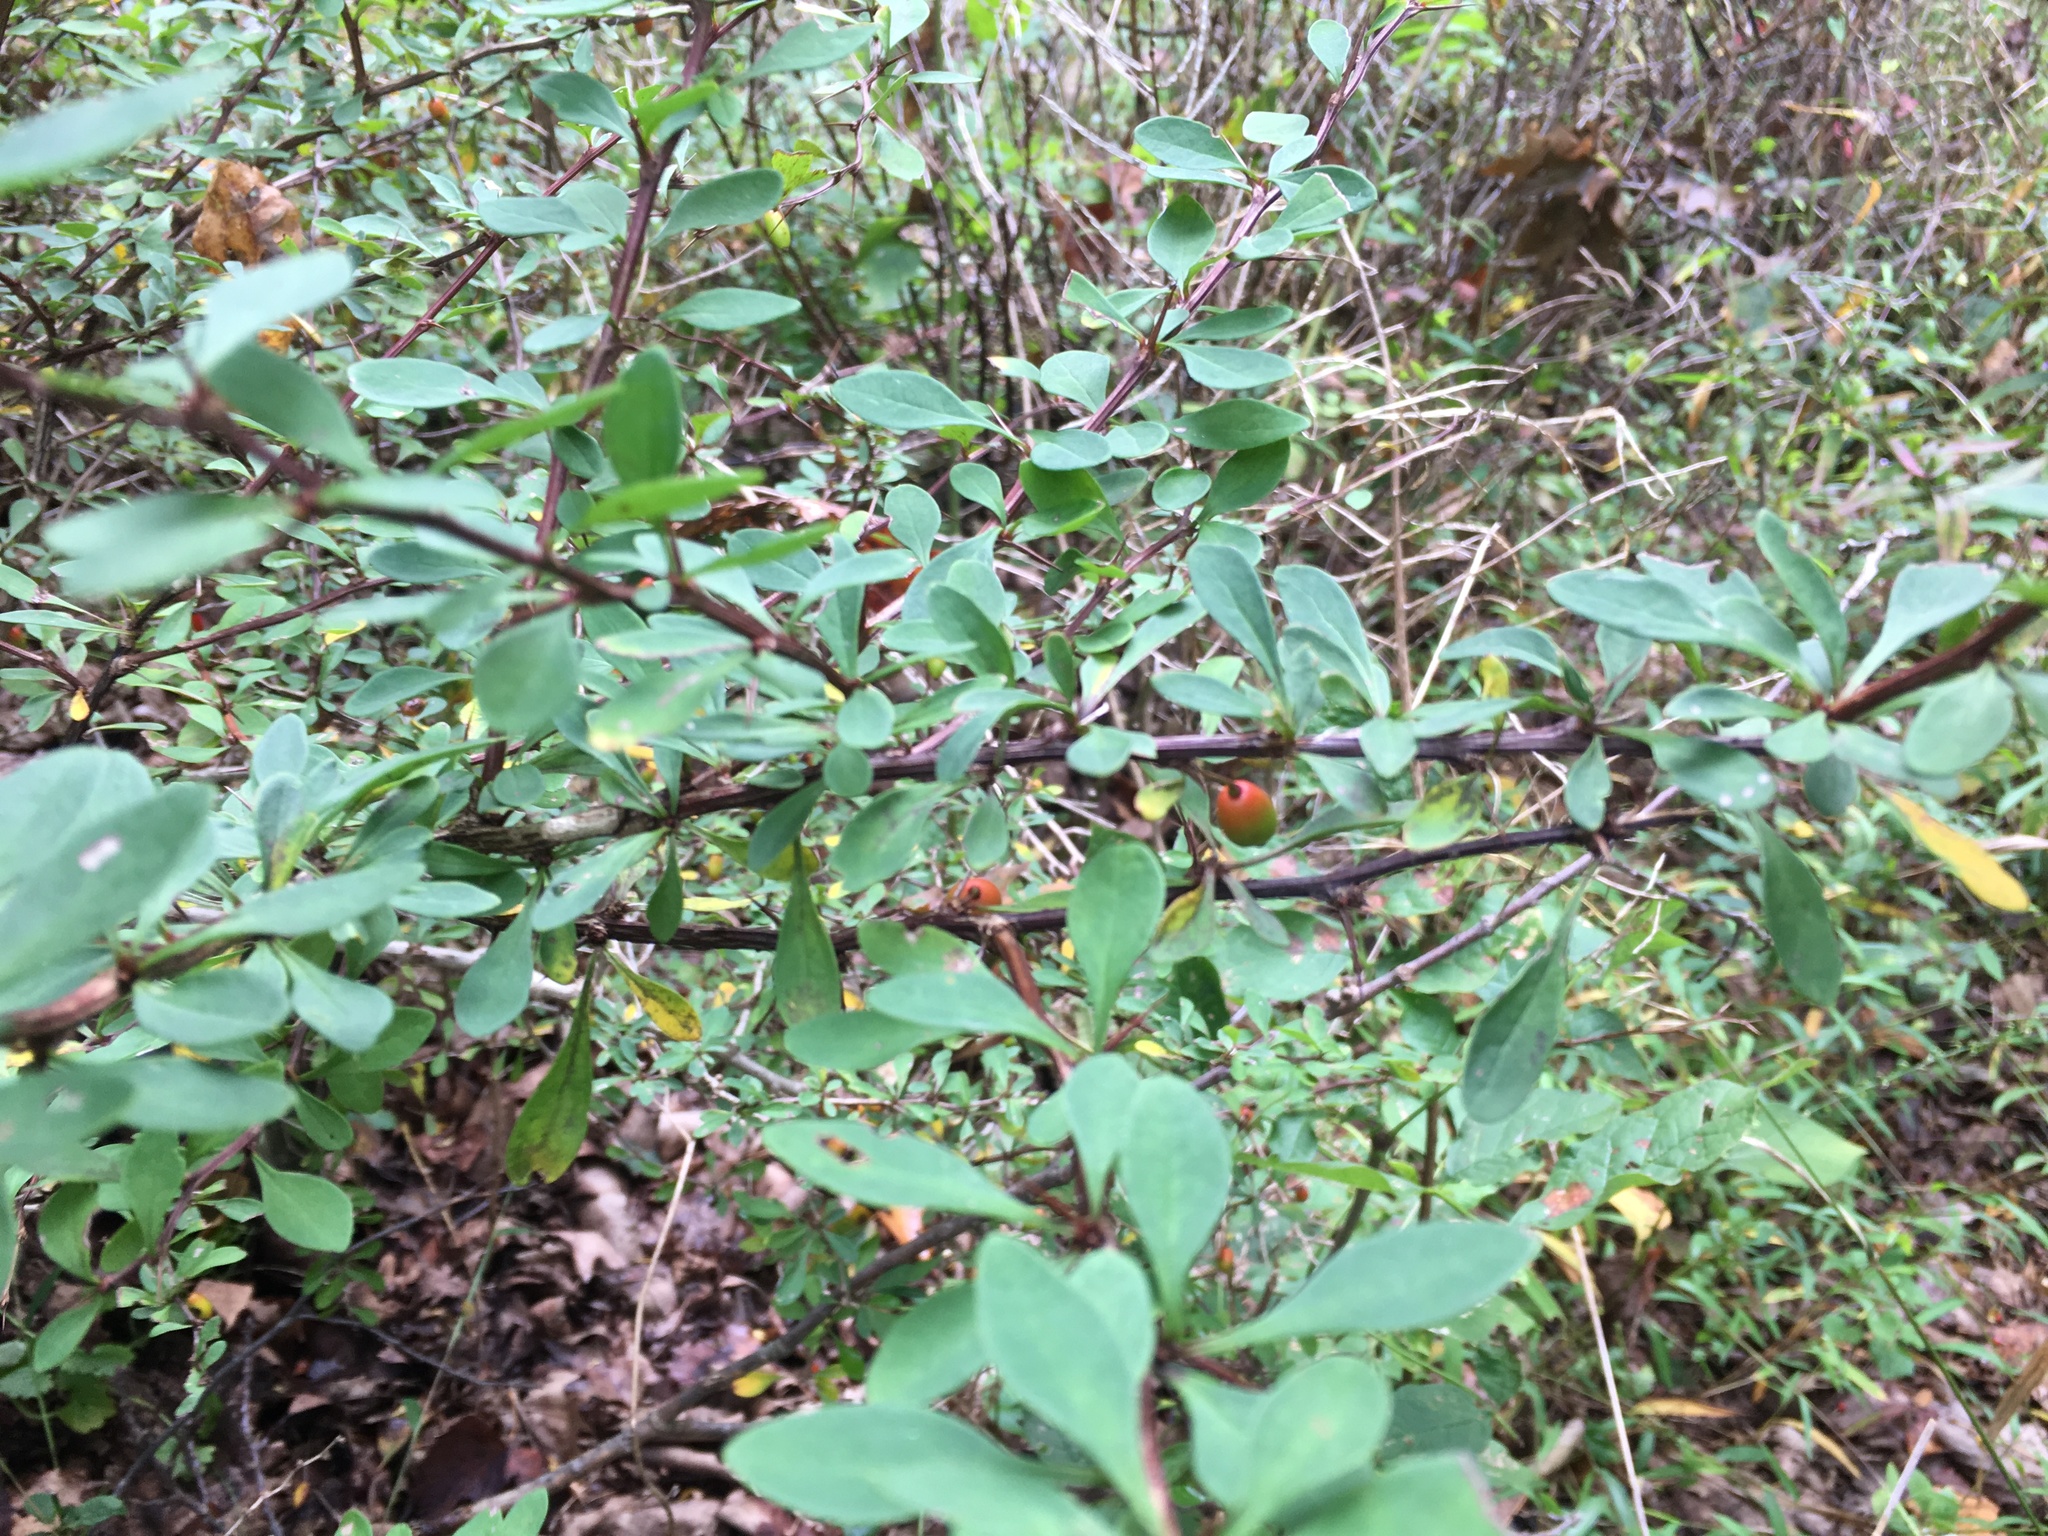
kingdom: Plantae
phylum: Tracheophyta
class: Magnoliopsida
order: Ranunculales
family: Berberidaceae
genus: Berberis
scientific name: Berberis thunbergii
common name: Japanese barberry
